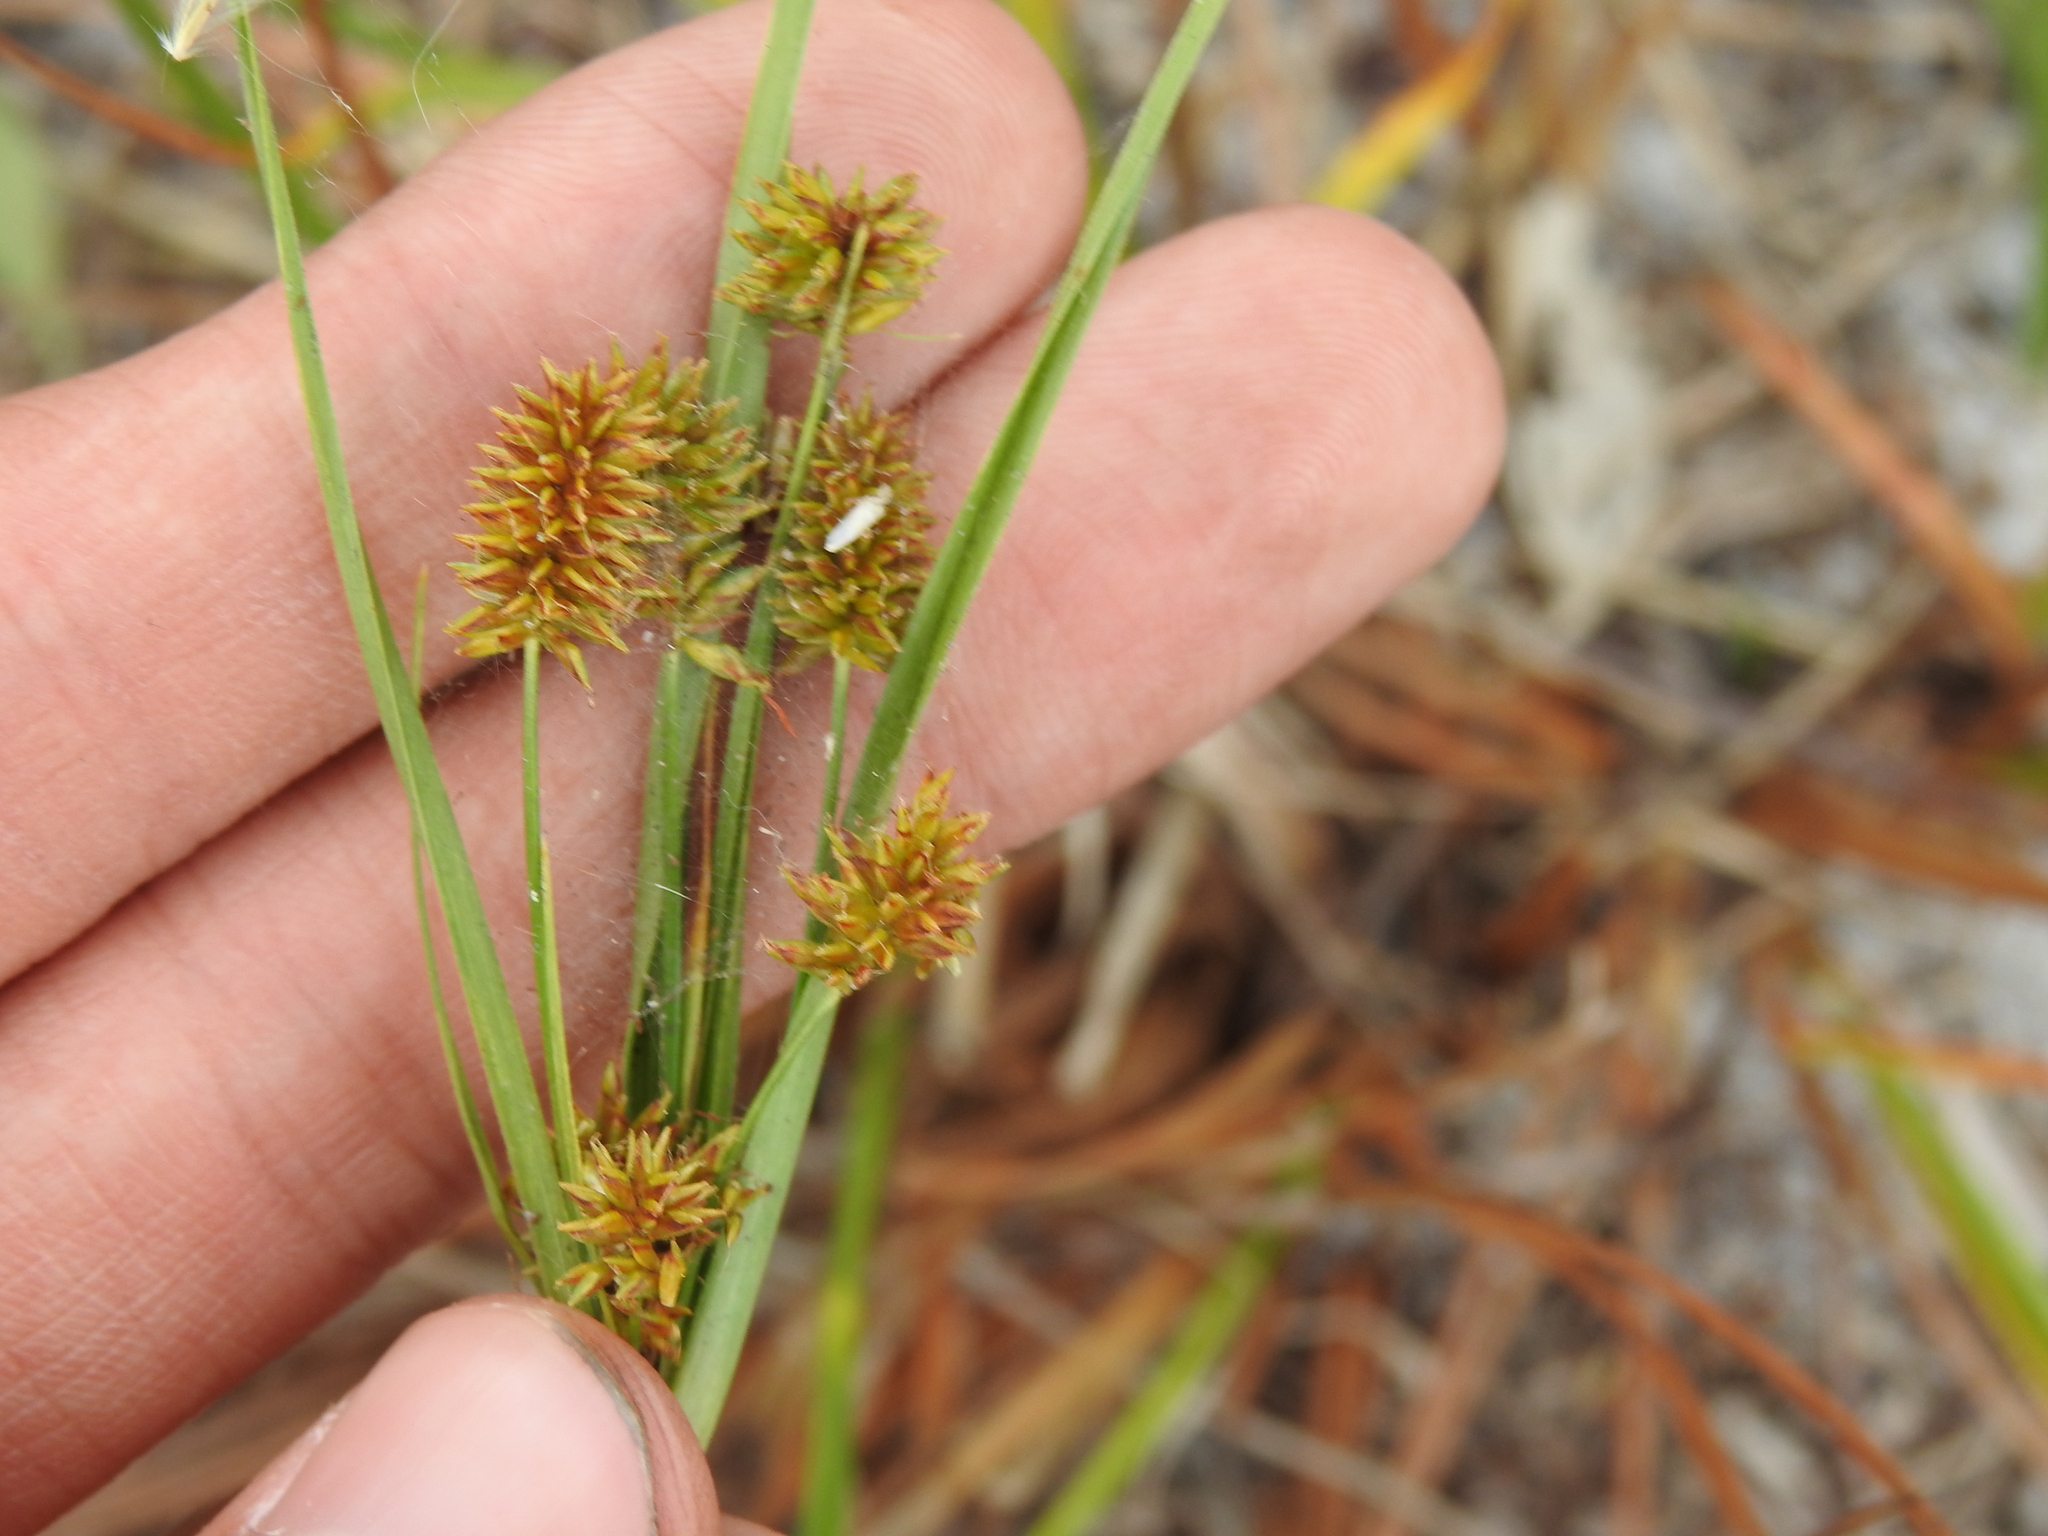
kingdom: Plantae
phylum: Tracheophyta
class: Liliopsida
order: Poales
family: Cyperaceae
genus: Cyperus
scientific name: Cyperus retrorsus
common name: Pinebarren flat sedge
